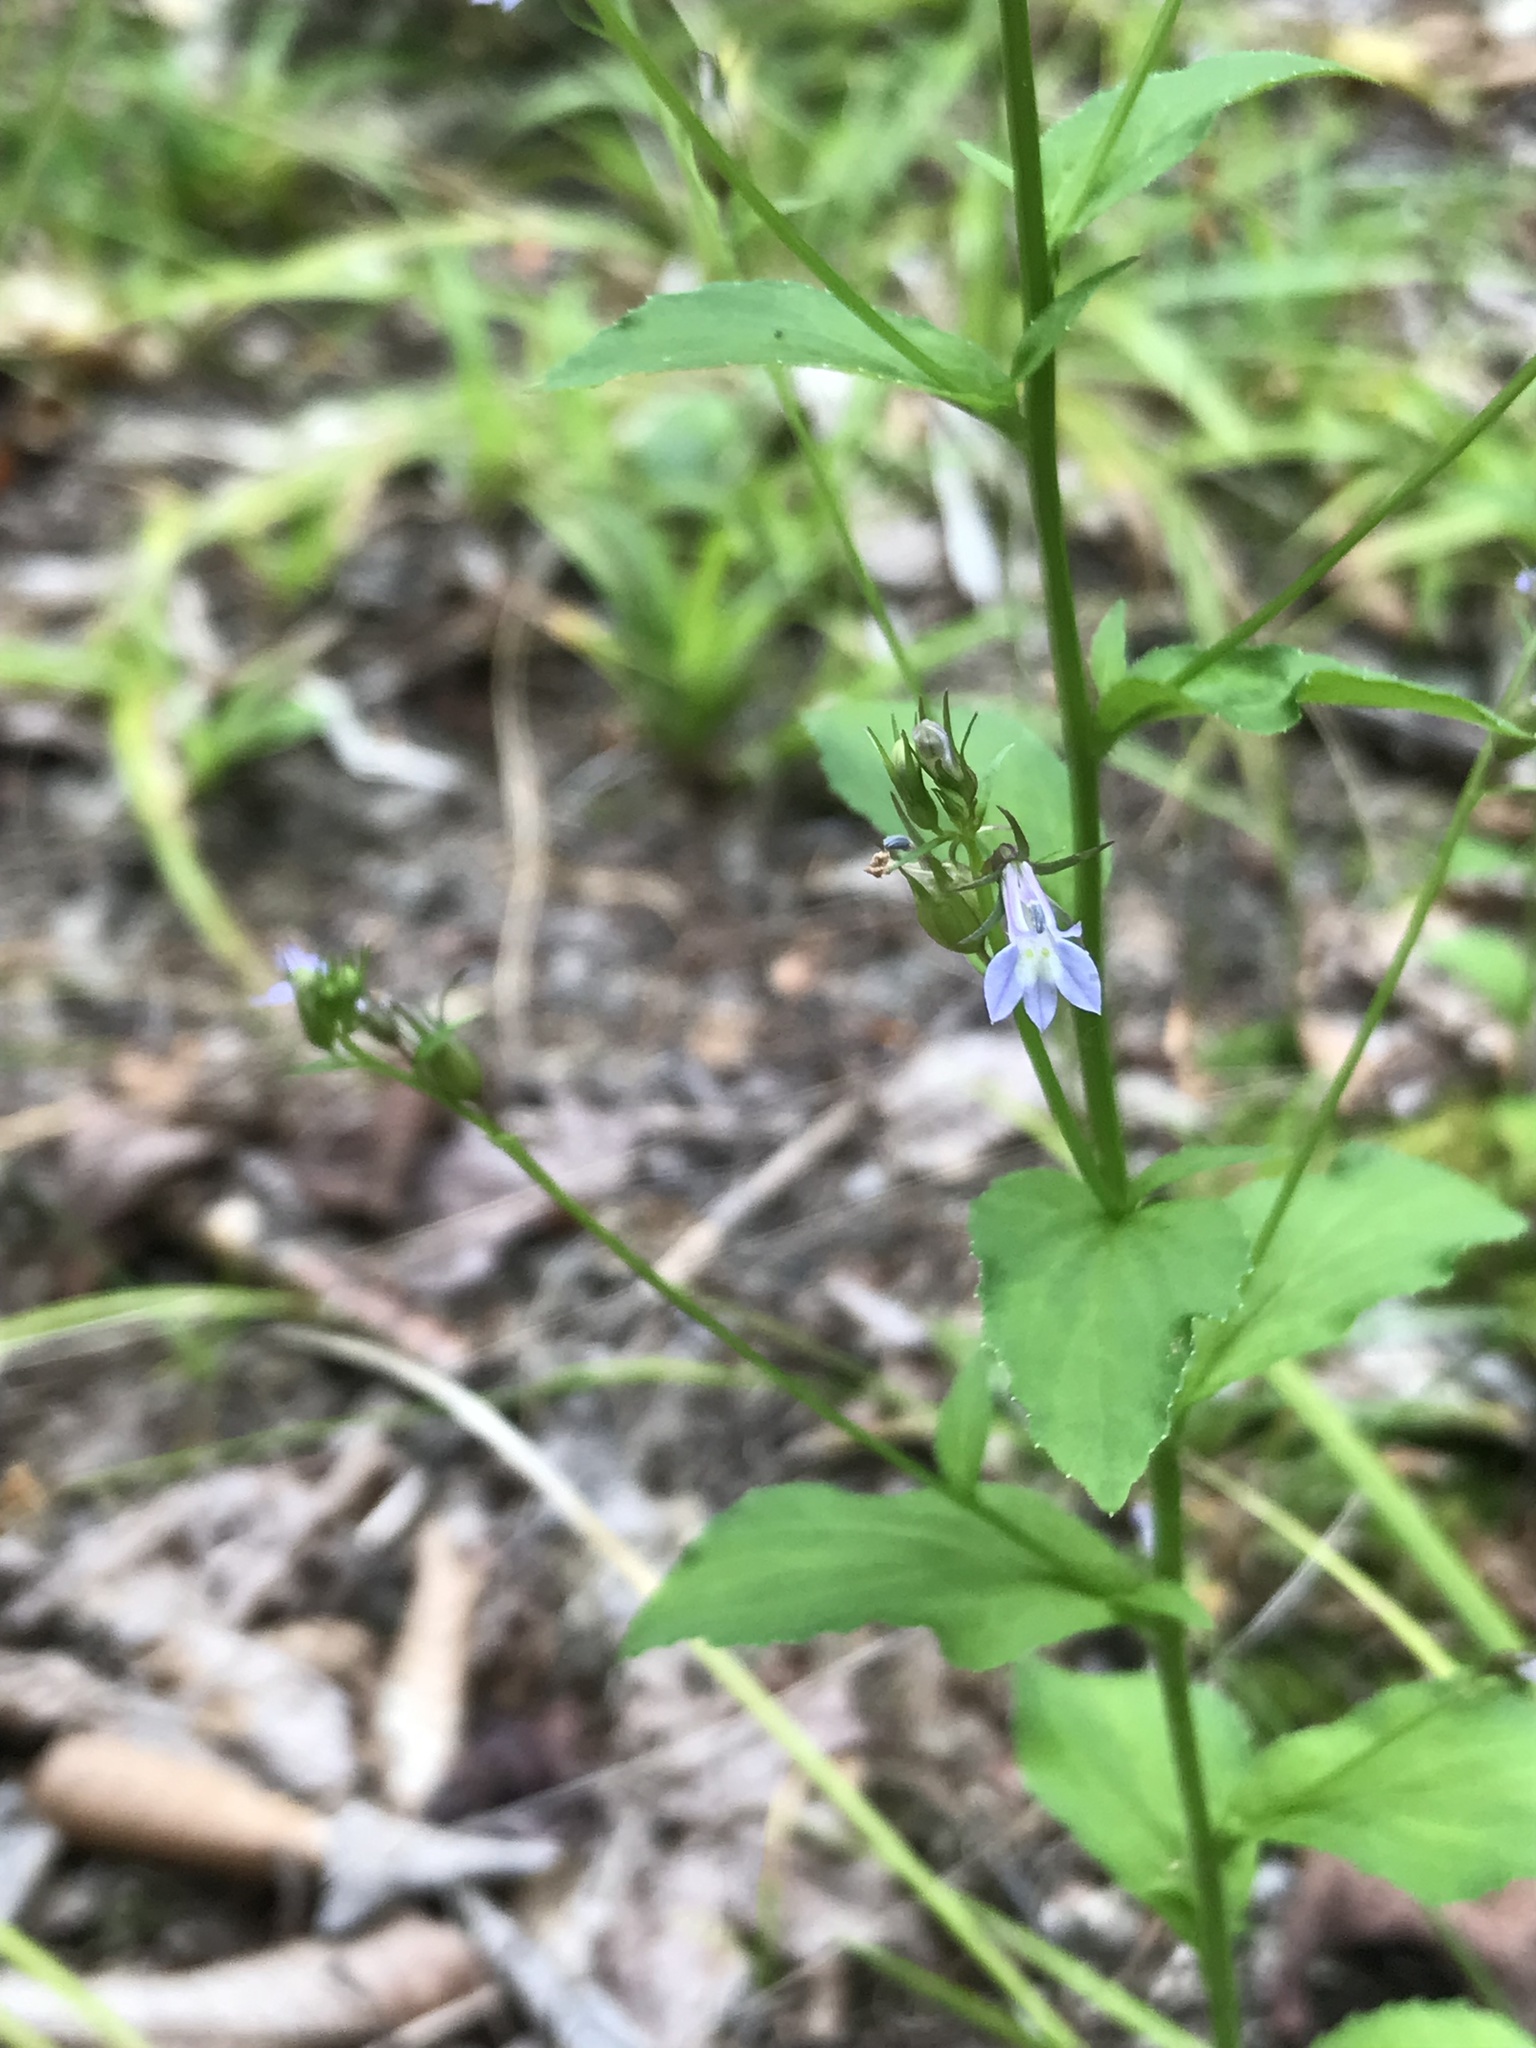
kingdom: Plantae
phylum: Tracheophyta
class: Magnoliopsida
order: Asterales
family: Campanulaceae
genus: Lobelia
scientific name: Lobelia inflata
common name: Indian tobacco
